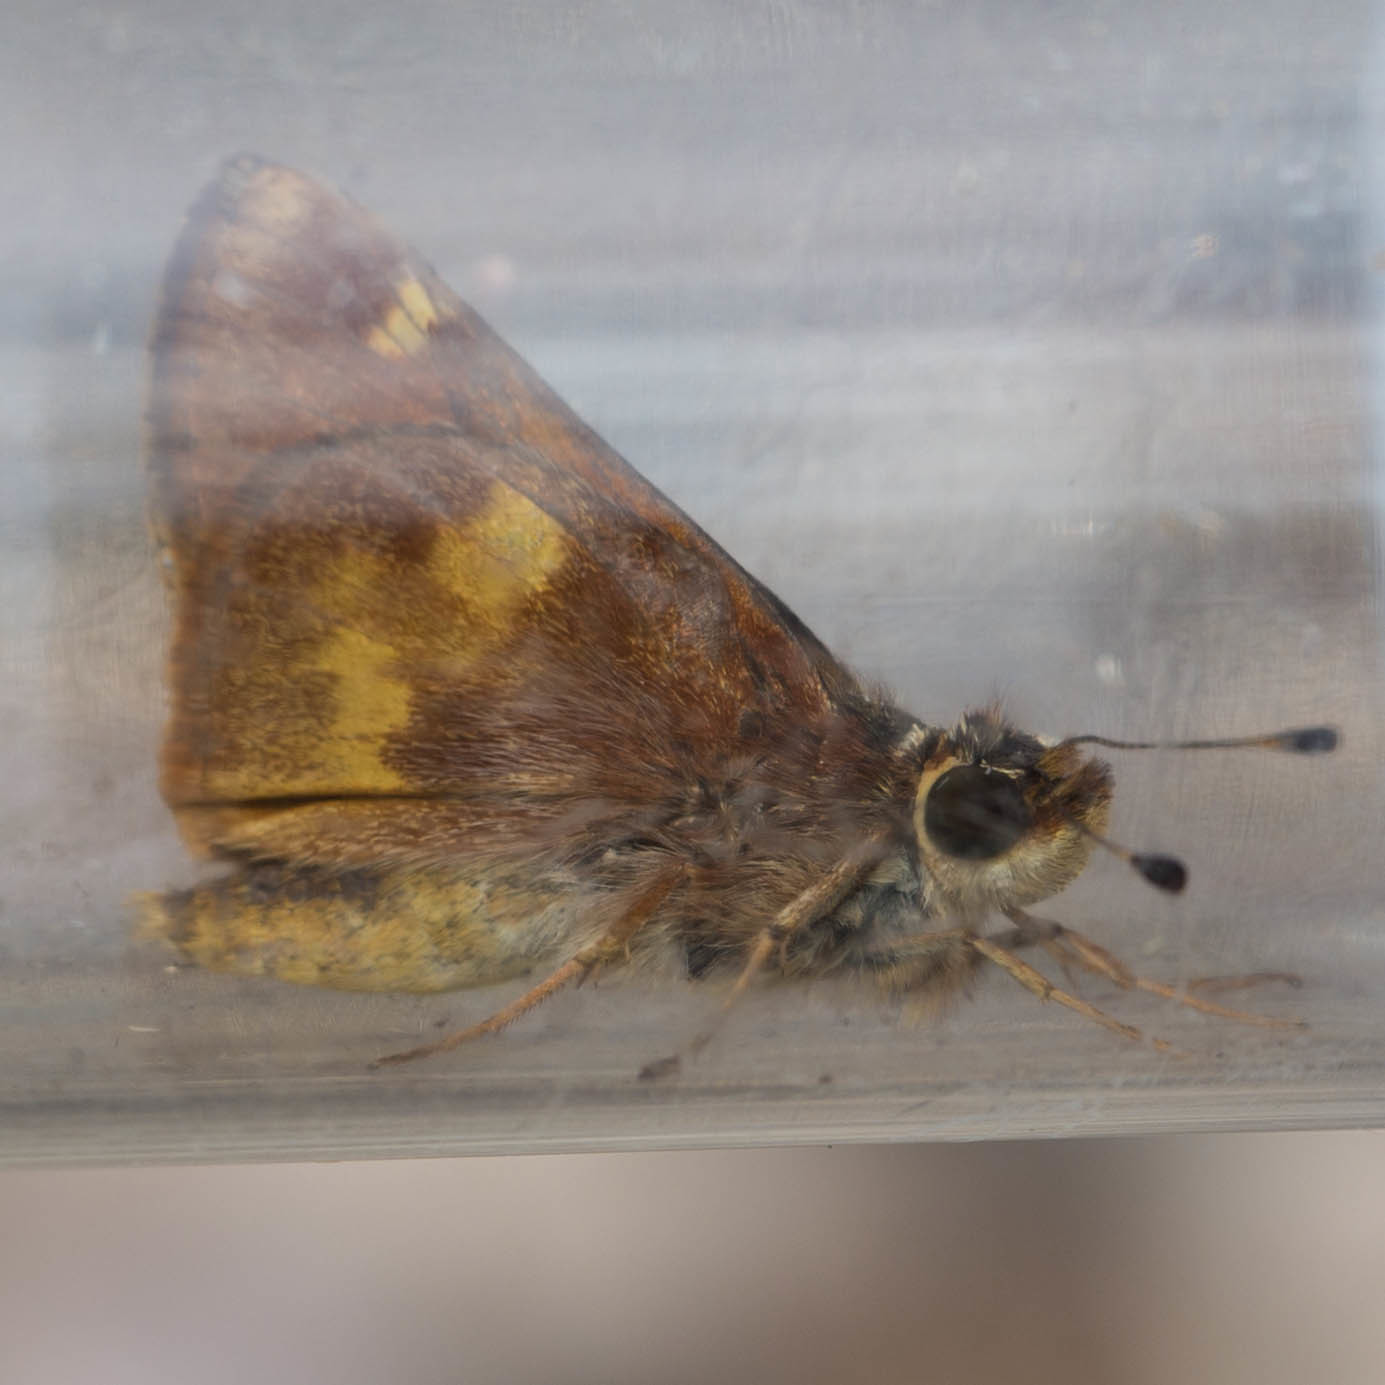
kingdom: Animalia
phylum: Arthropoda
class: Insecta
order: Lepidoptera
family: Hesperiidae
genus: Lon
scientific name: Lon melane
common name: Umber skipper
